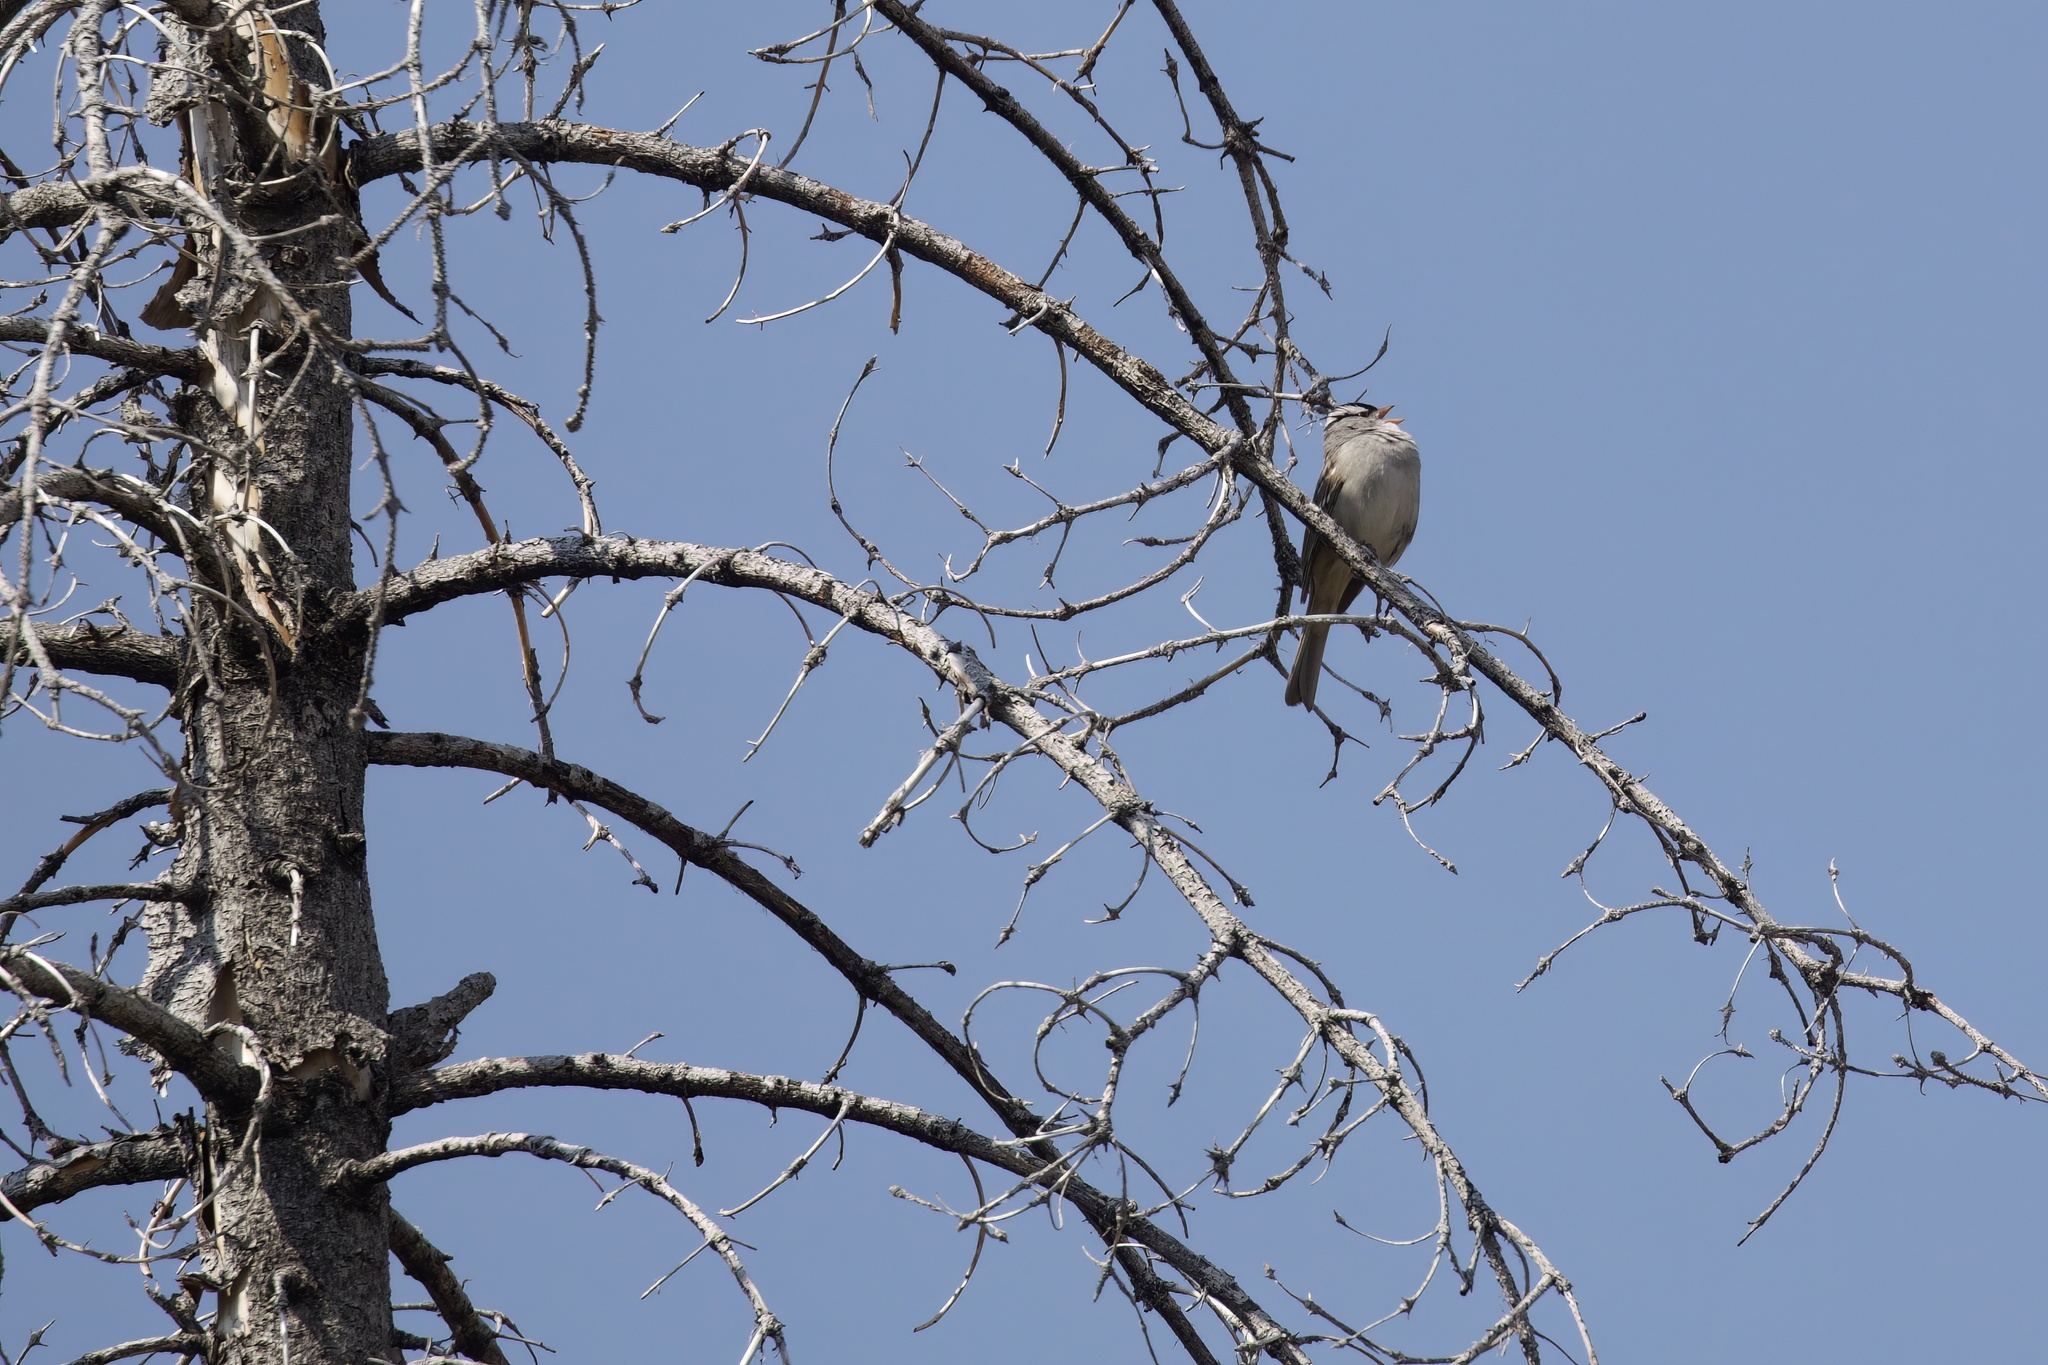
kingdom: Animalia
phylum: Chordata
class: Aves
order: Passeriformes
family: Passerellidae
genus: Zonotrichia
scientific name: Zonotrichia leucophrys
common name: White-crowned sparrow
